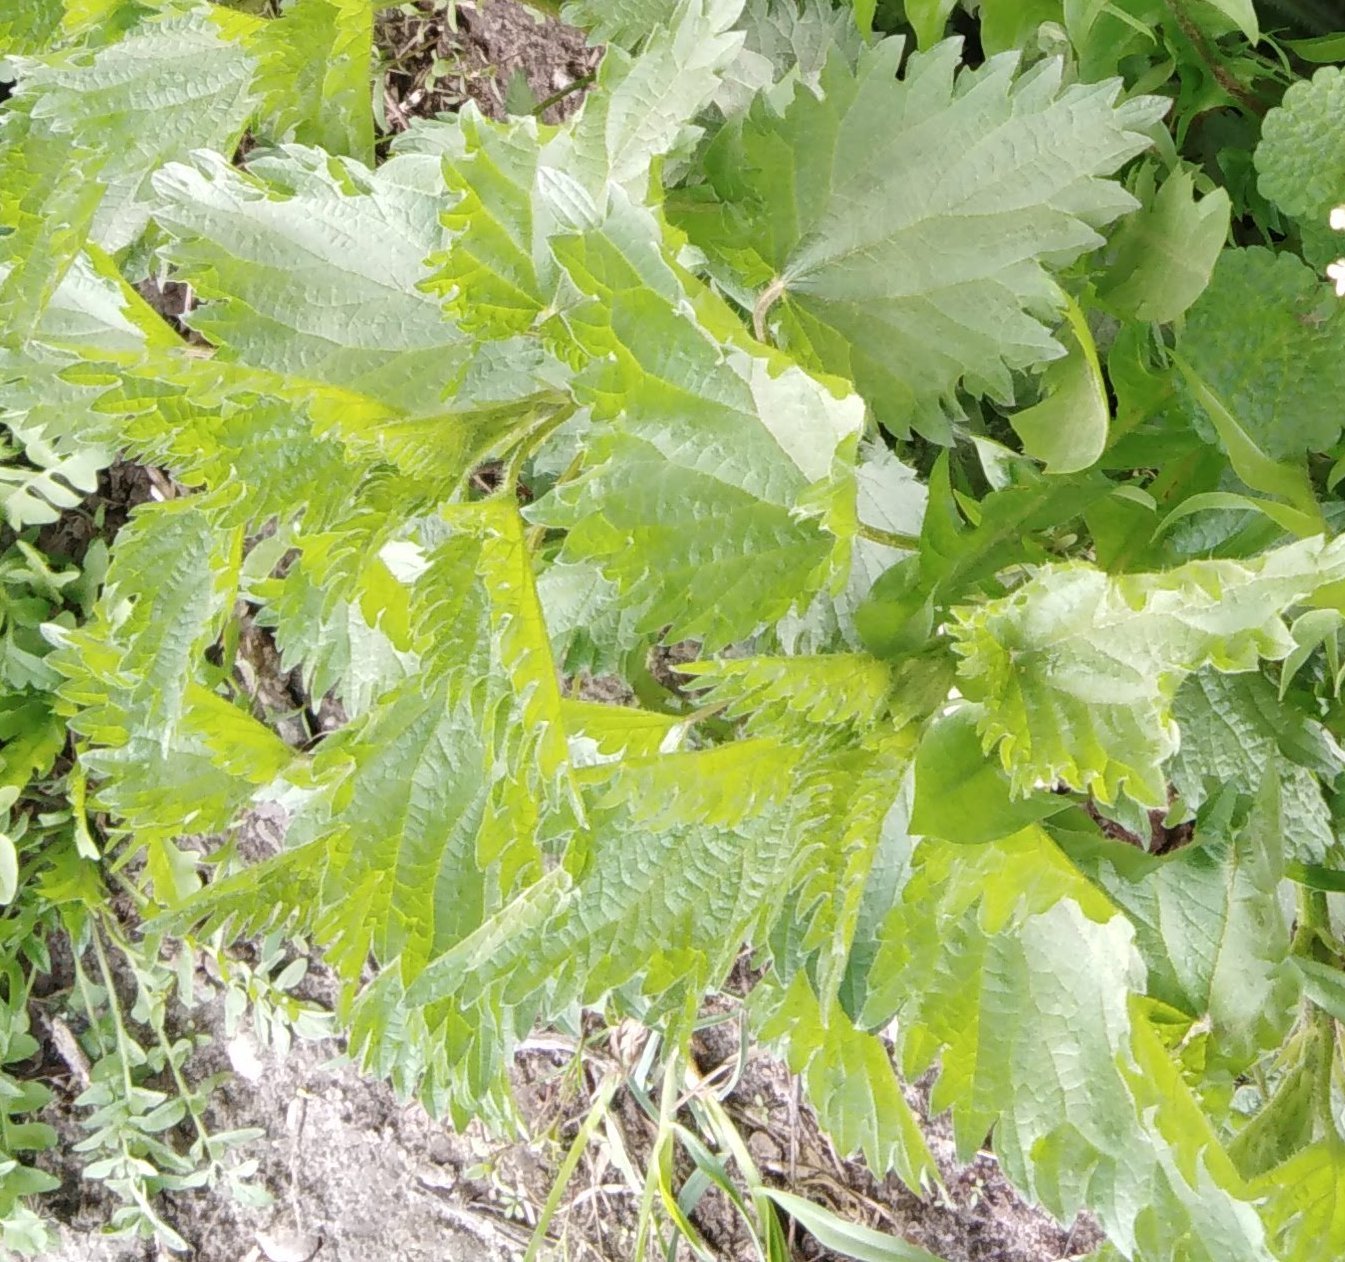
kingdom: Plantae
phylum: Tracheophyta
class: Magnoliopsida
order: Rosales
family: Urticaceae
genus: Urtica
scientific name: Urtica dioica
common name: Common nettle
